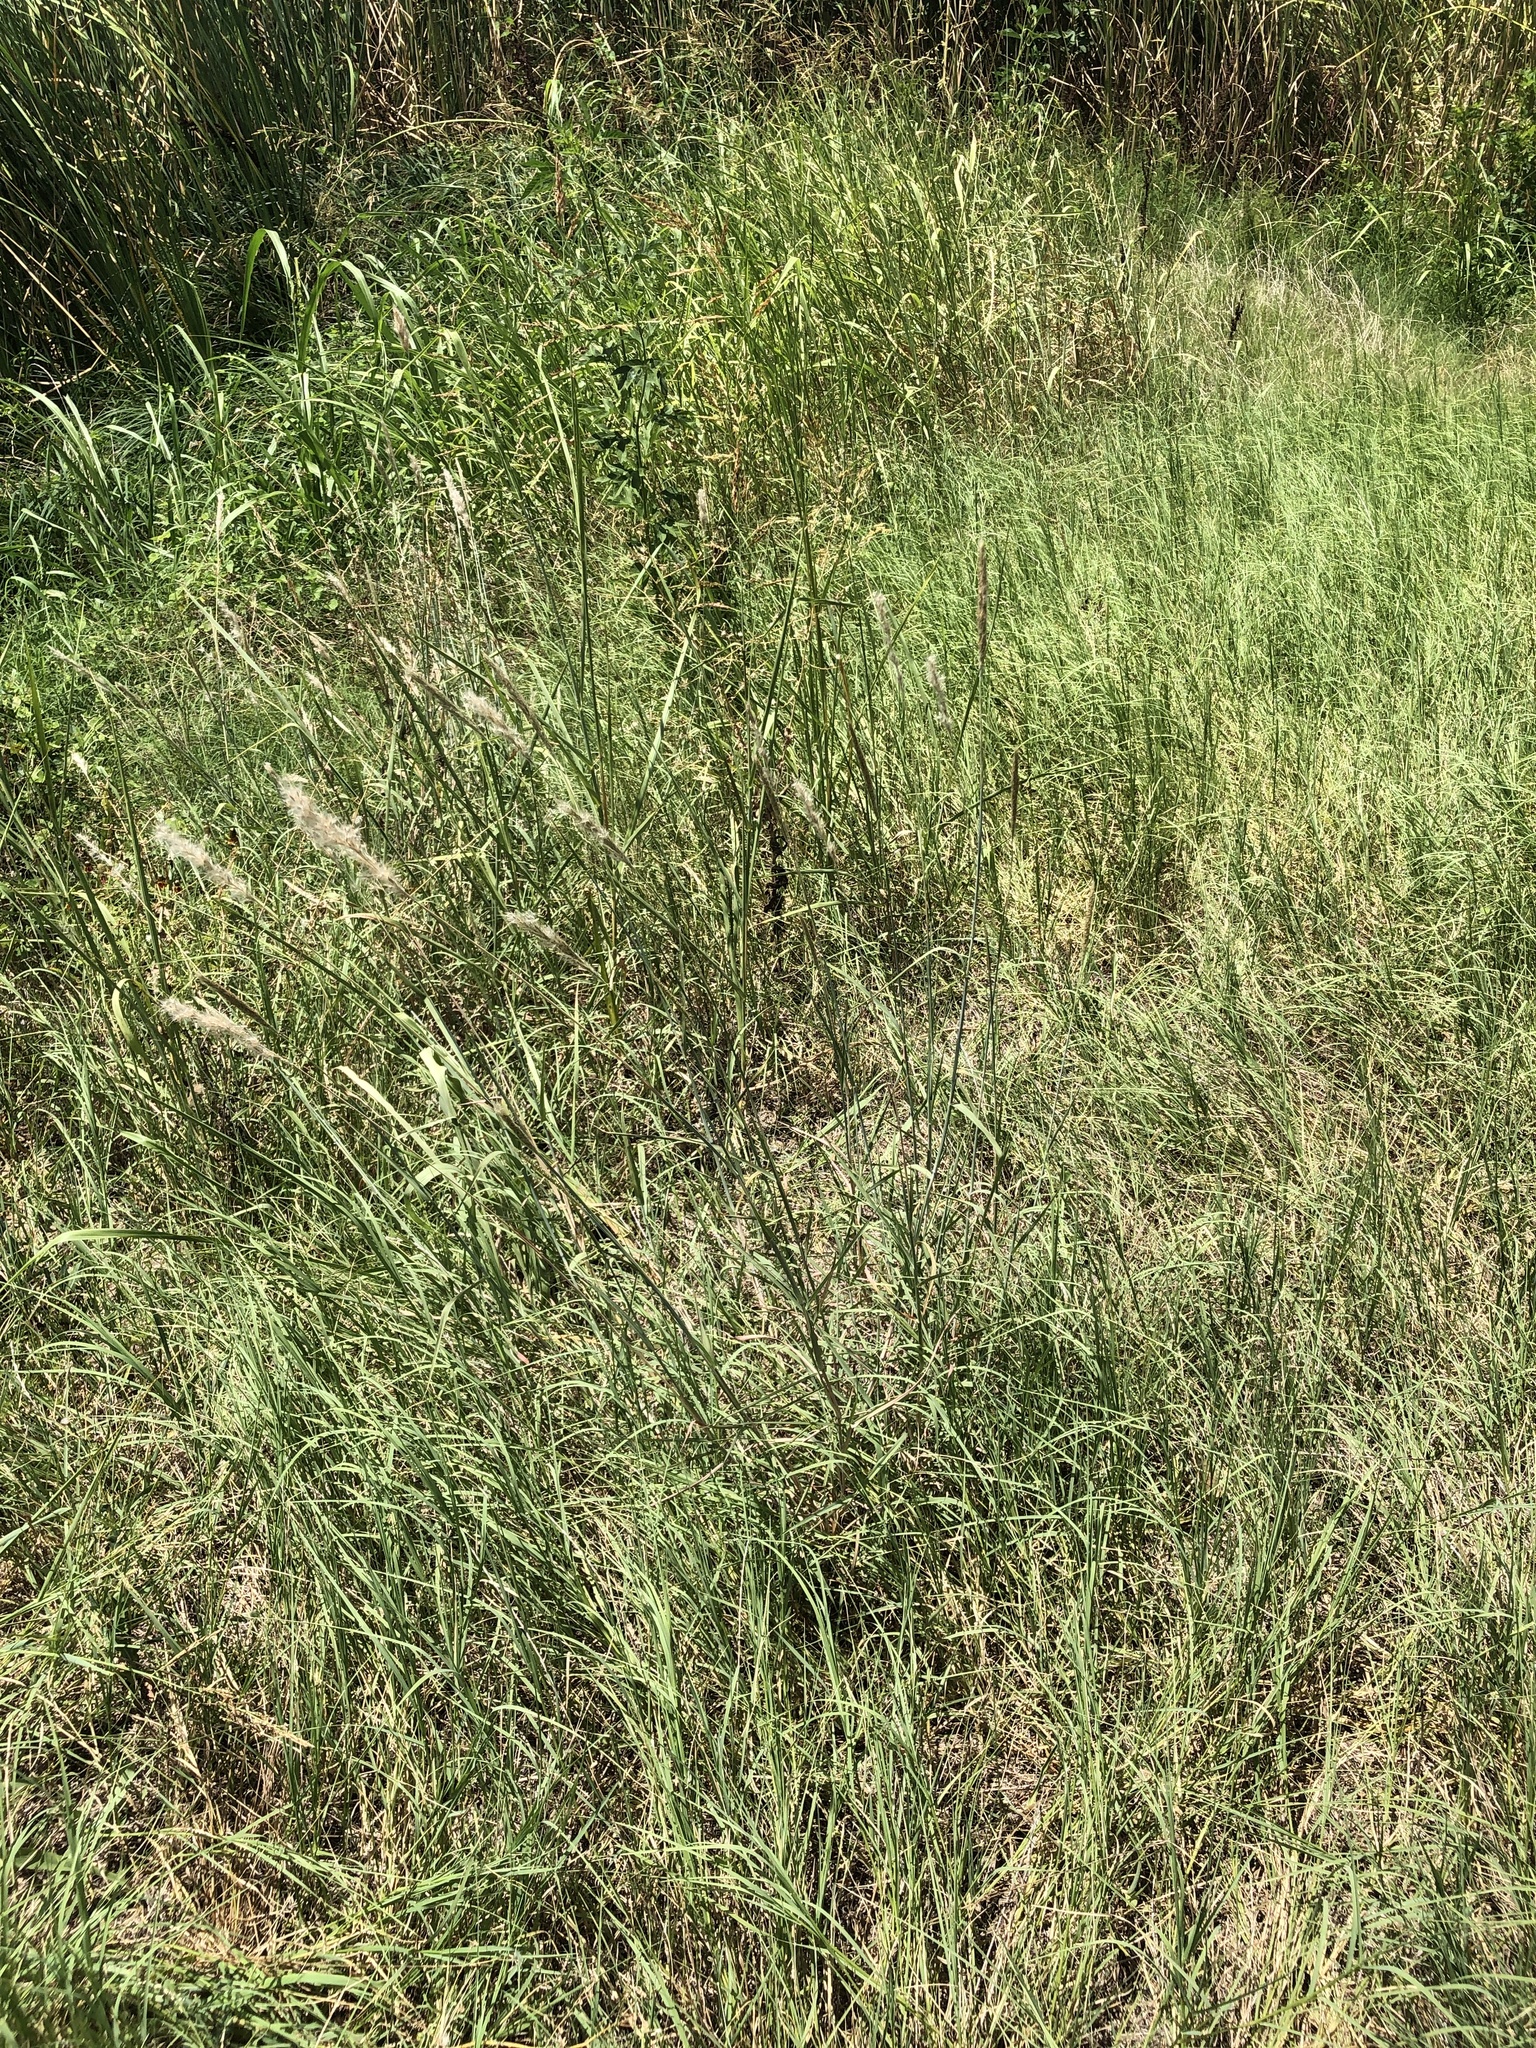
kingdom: Plantae
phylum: Tracheophyta
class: Liliopsida
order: Poales
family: Poaceae
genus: Bothriochloa
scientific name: Bothriochloa torreyana
